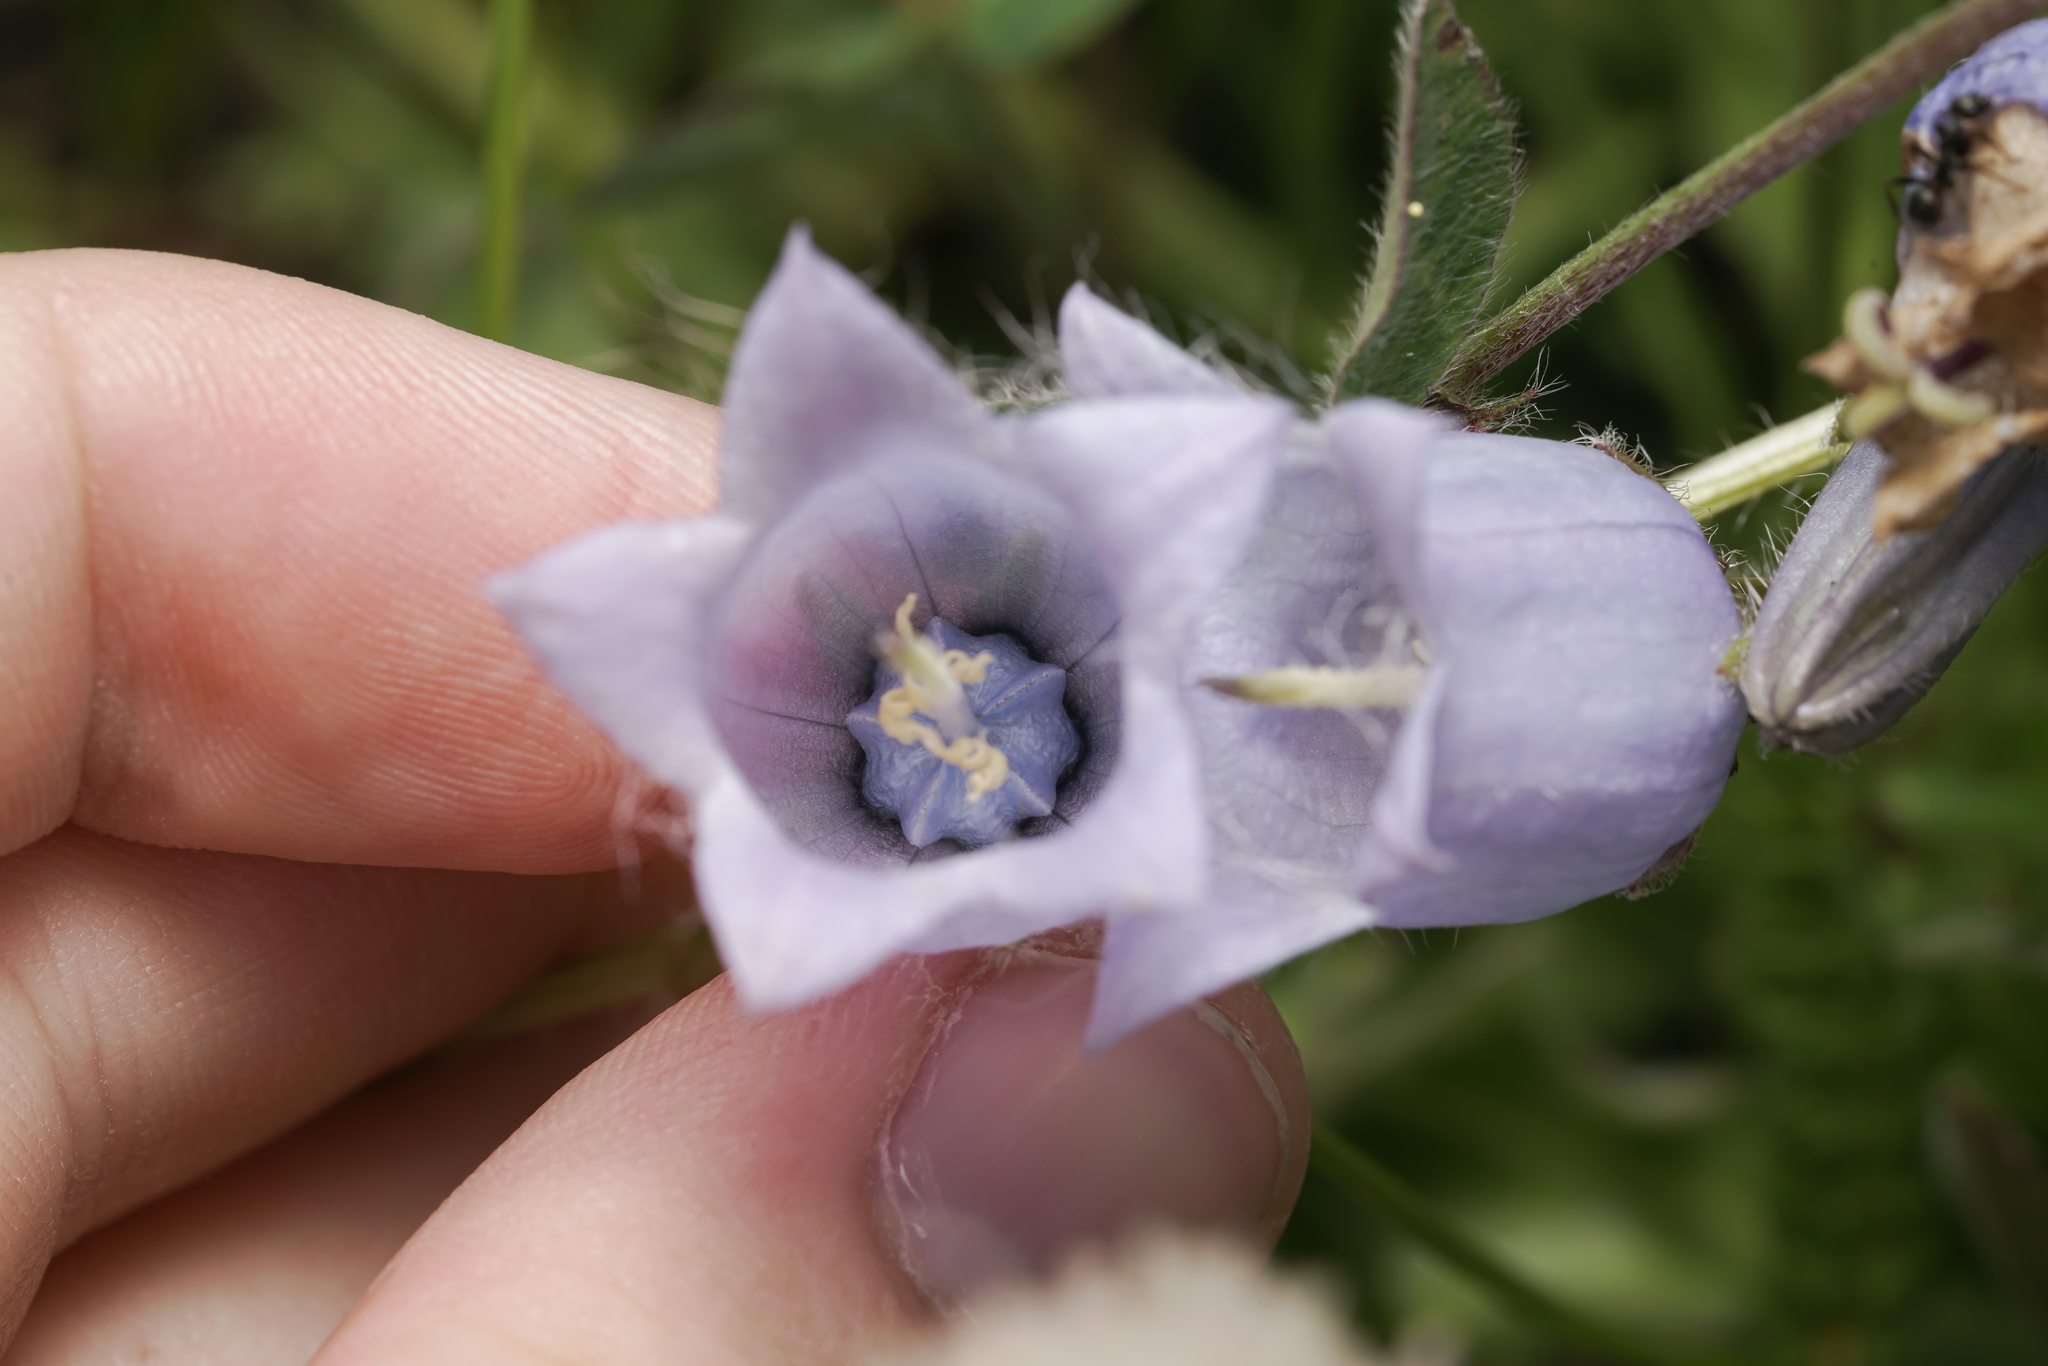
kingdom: Plantae
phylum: Tracheophyta
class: Magnoliopsida
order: Asterales
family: Campanulaceae
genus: Campanula
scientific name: Campanula barbata
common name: Bearded bellflower
